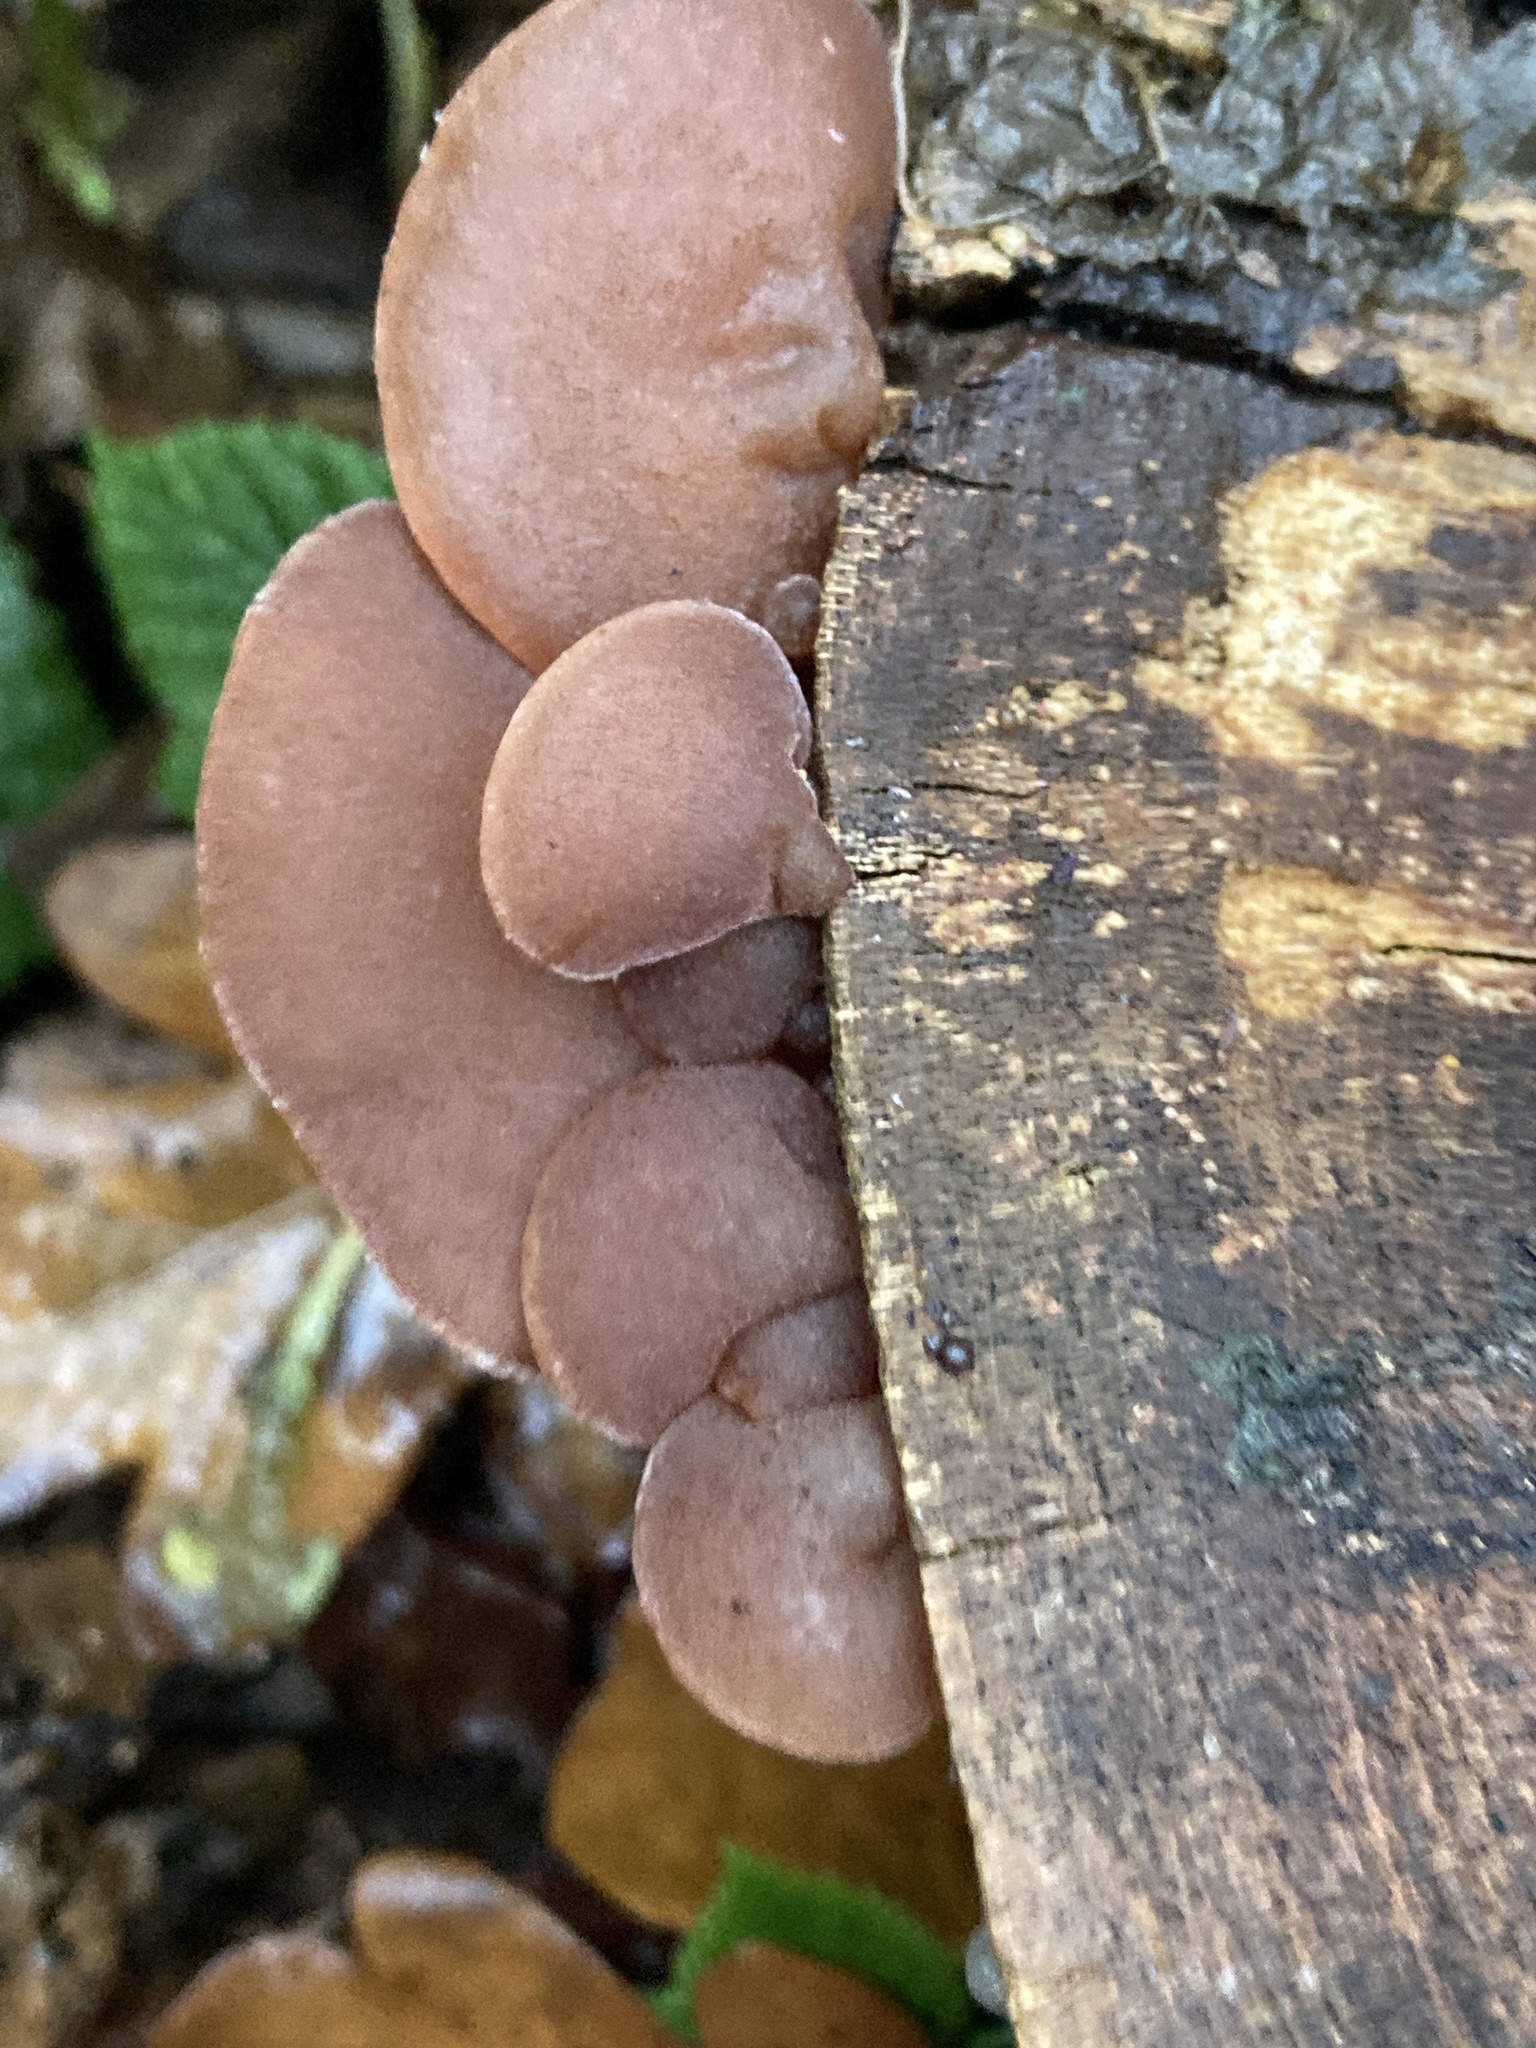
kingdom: Fungi
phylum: Basidiomycota
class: Agaricomycetes
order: Auriculariales
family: Auriculariaceae
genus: Auricularia
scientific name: Auricularia auricula-judae
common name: Jelly ear
